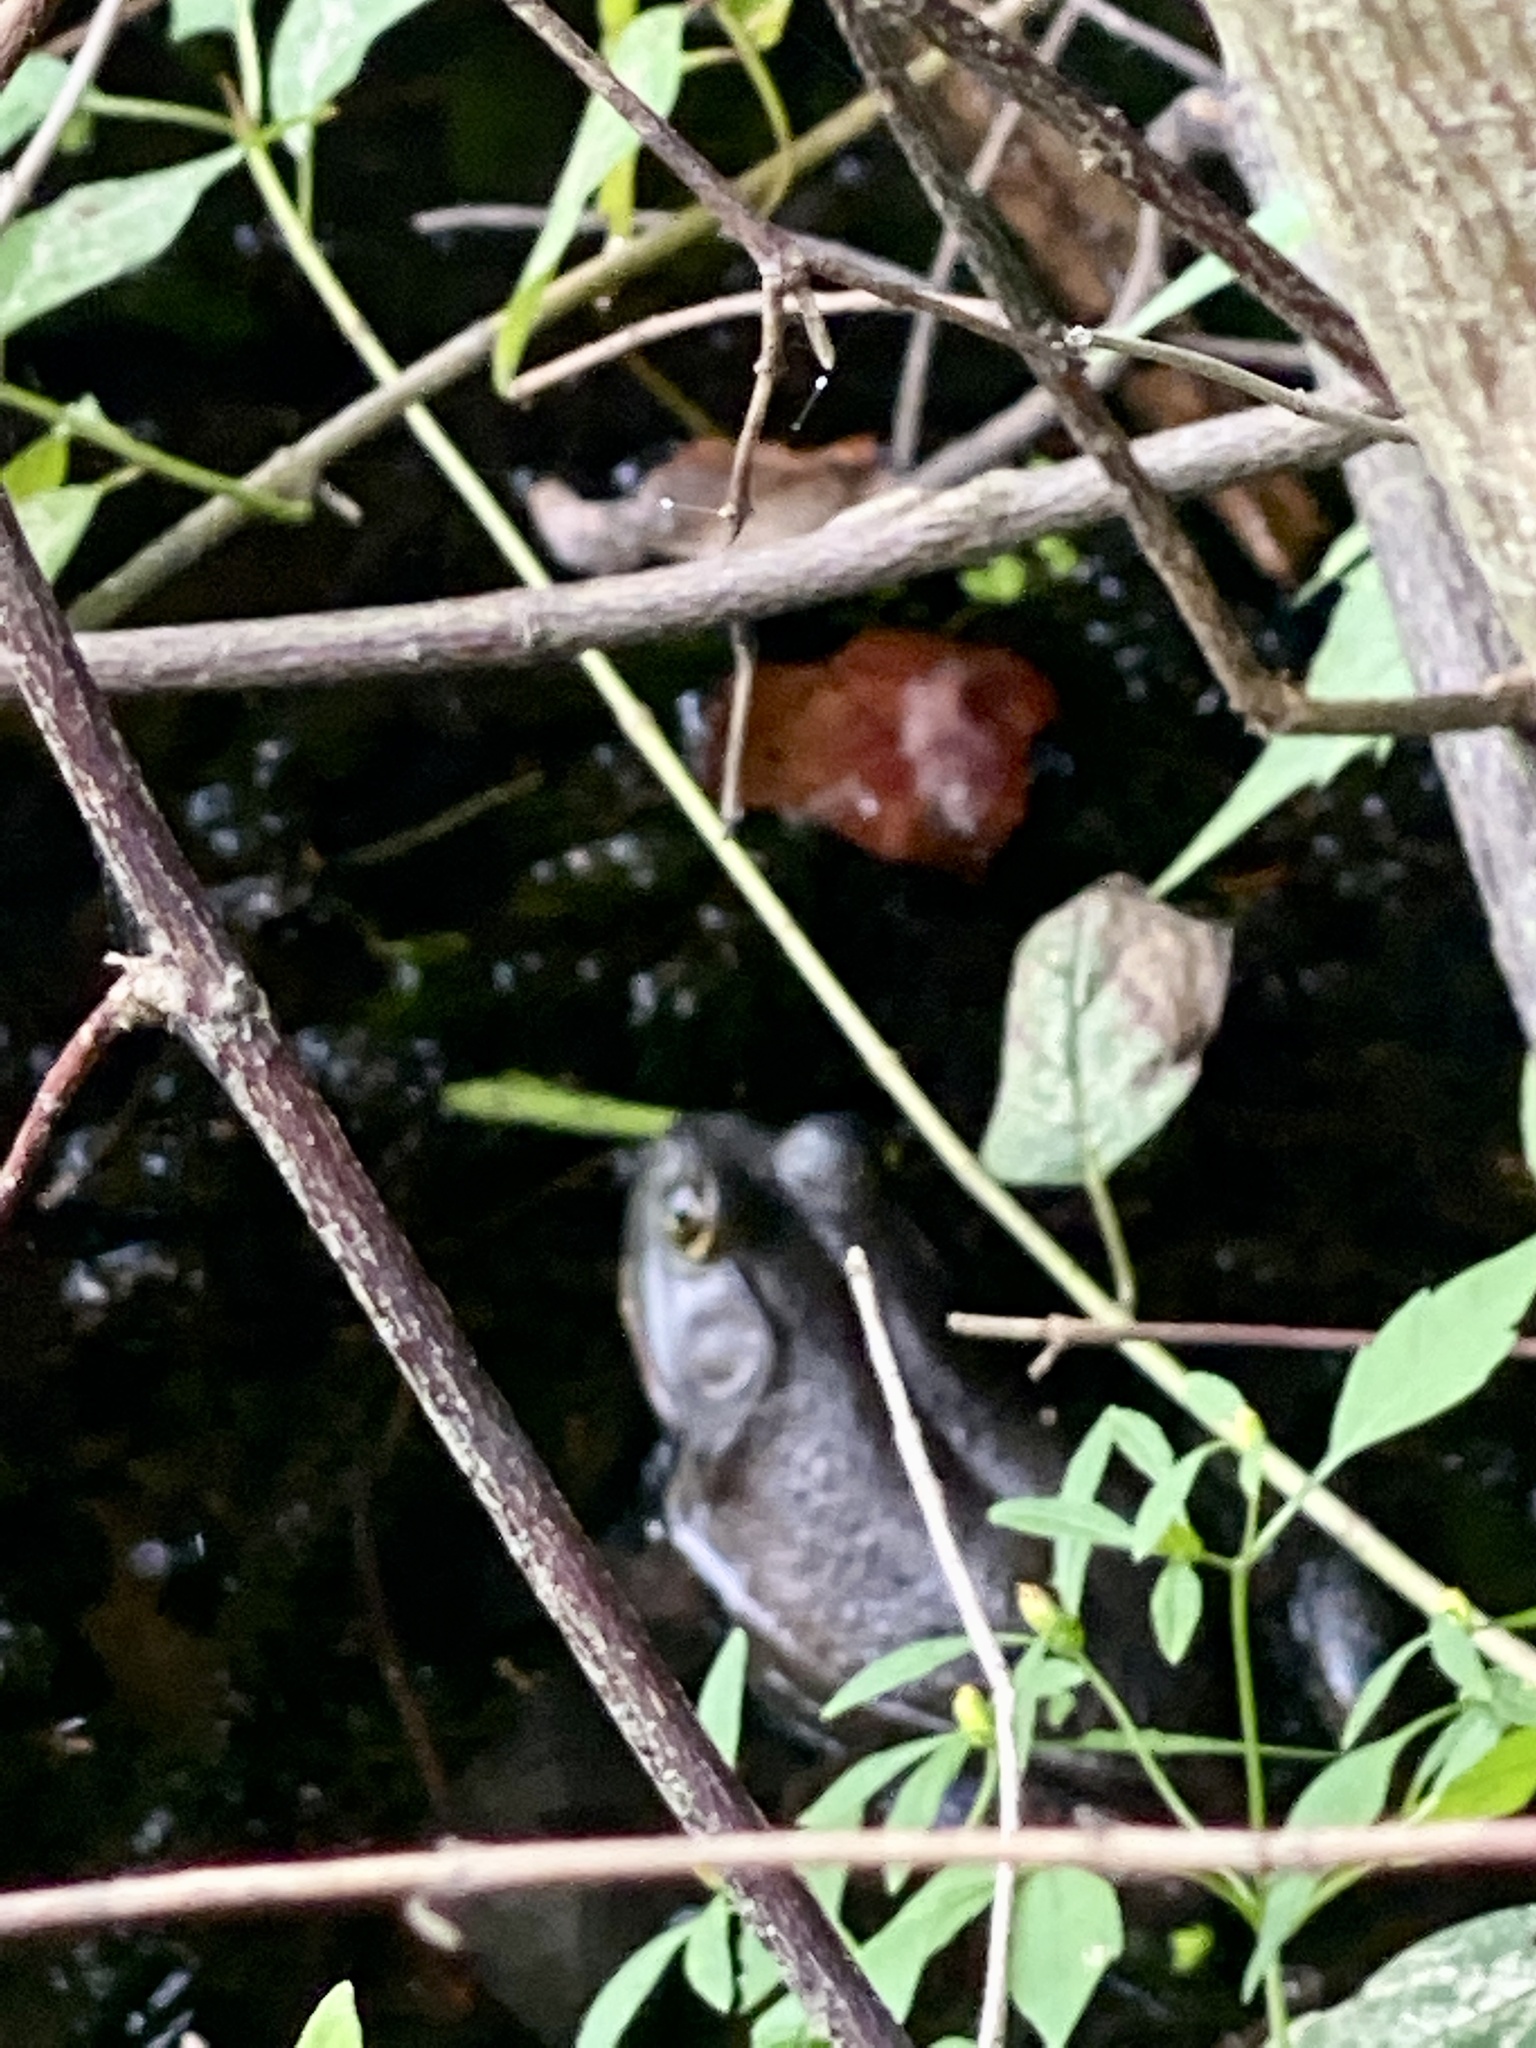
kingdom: Animalia
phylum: Chordata
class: Amphibia
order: Anura
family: Ranidae
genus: Lithobates
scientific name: Lithobates catesbeianus
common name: American bullfrog
